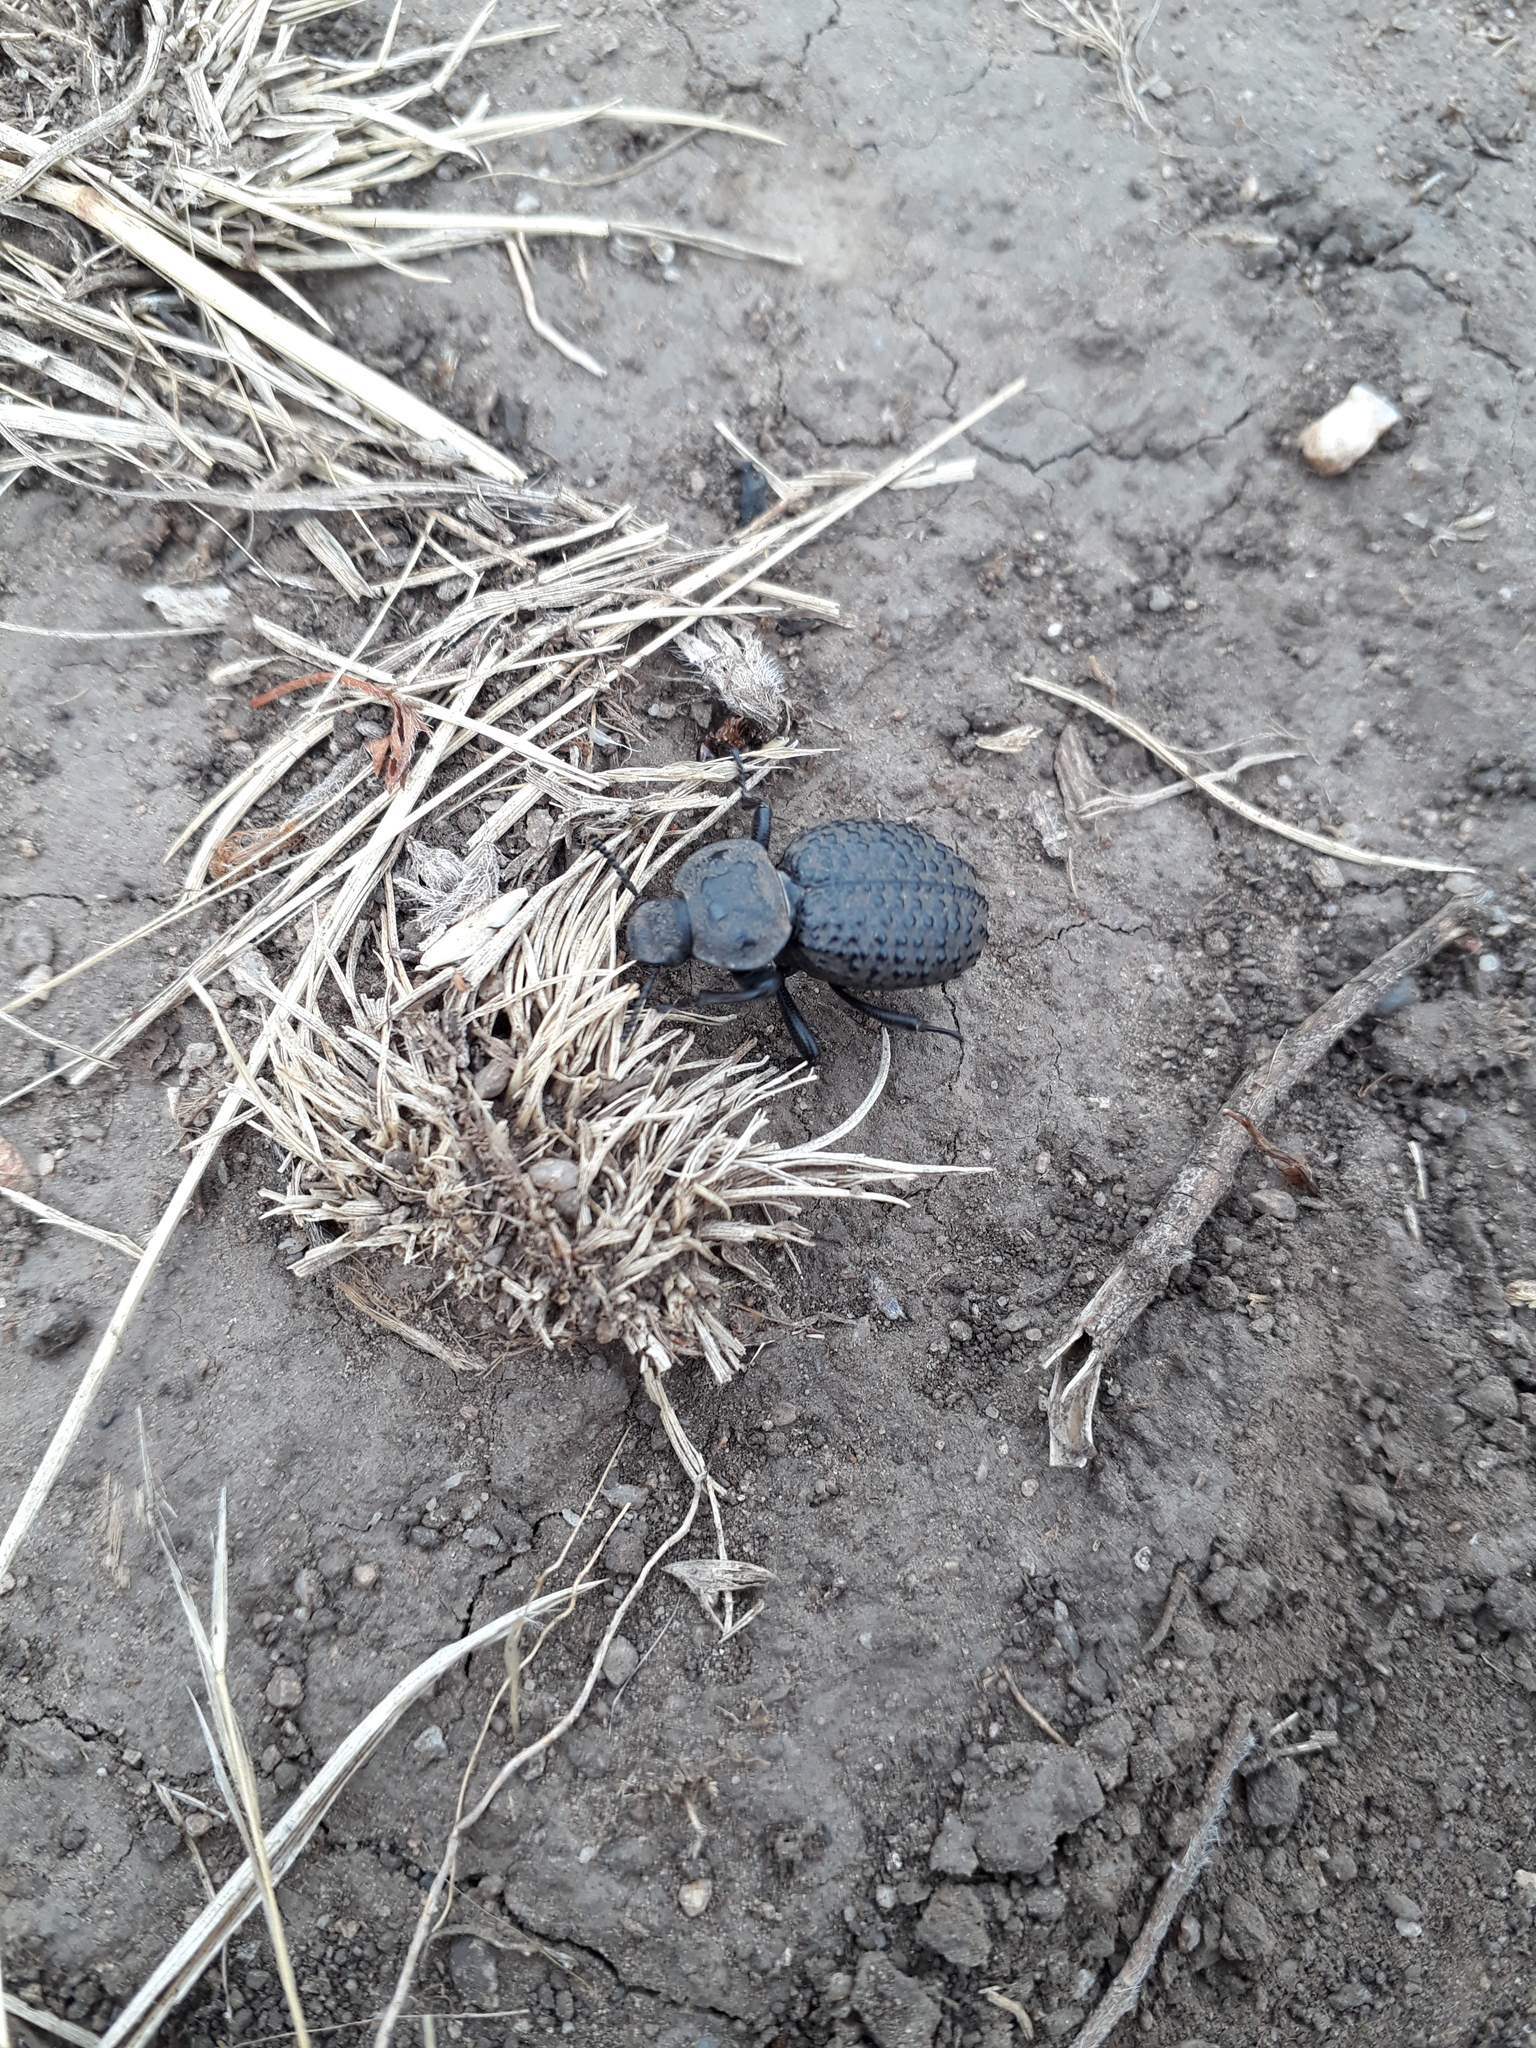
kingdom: Animalia
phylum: Arthropoda
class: Insecta
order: Coleoptera
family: Tenebrionidae
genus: Scotobius
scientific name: Scotobius pilularius
